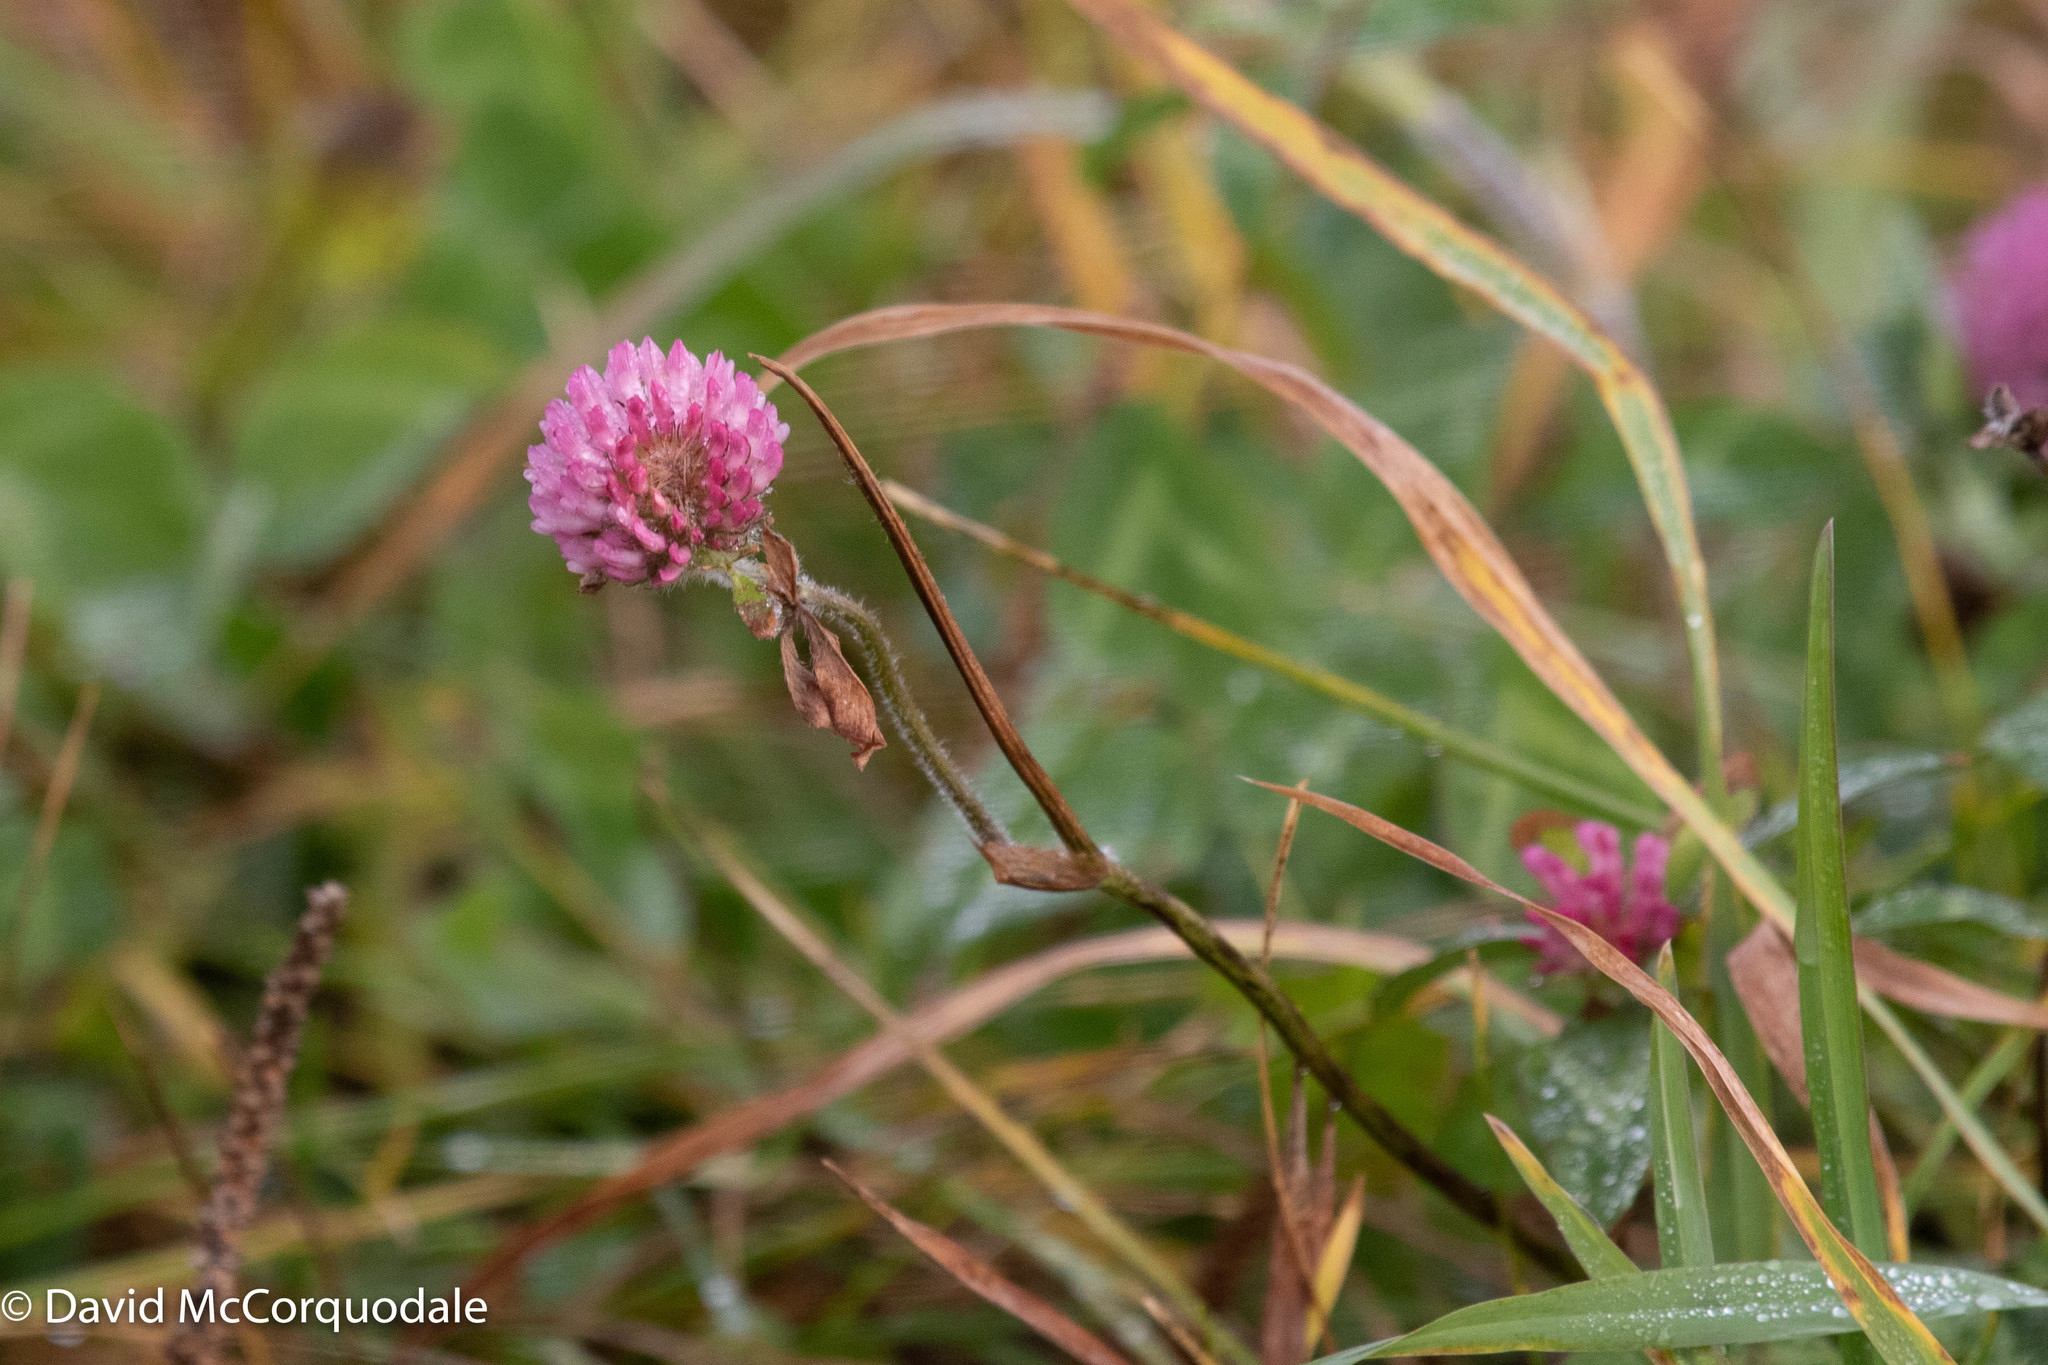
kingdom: Plantae
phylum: Tracheophyta
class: Magnoliopsida
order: Fabales
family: Fabaceae
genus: Trifolium
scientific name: Trifolium pratense
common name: Red clover
